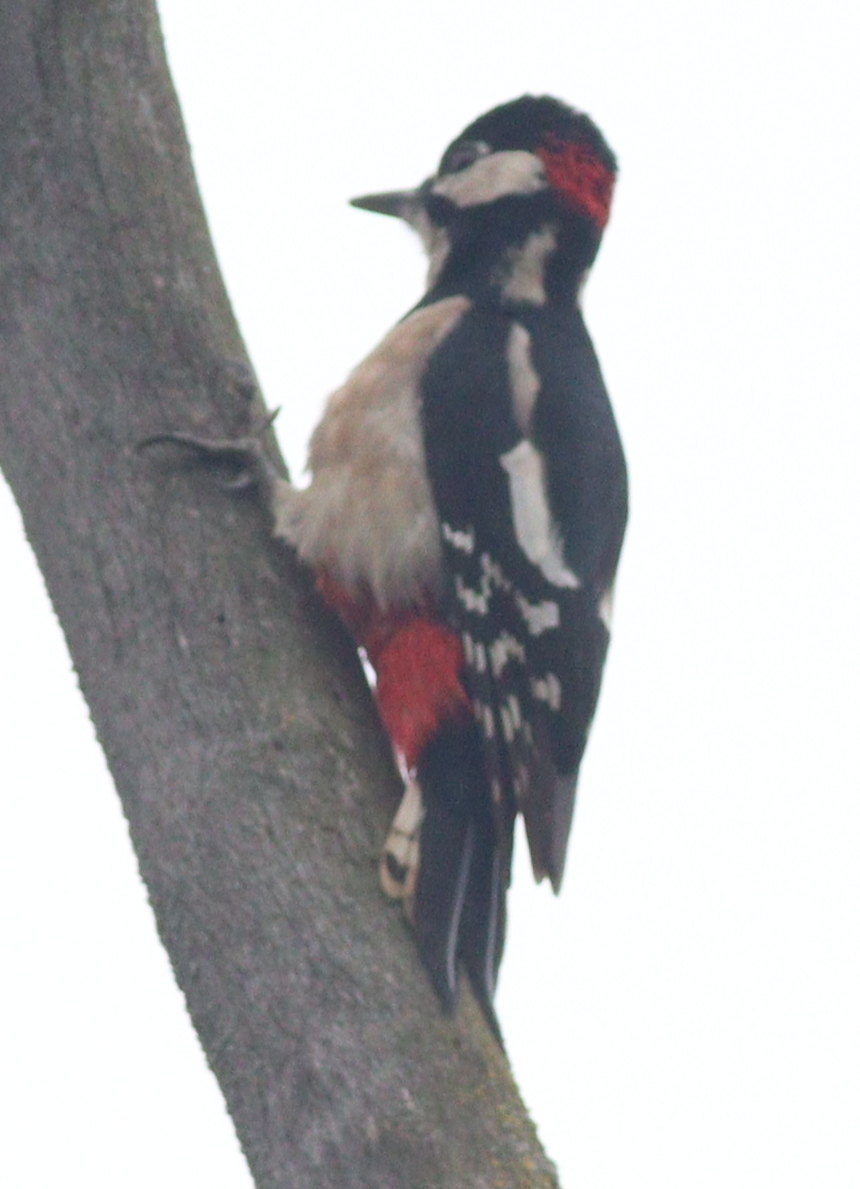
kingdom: Animalia
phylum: Chordata
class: Aves
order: Piciformes
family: Picidae
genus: Dendrocopos
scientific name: Dendrocopos major
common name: Great spotted woodpecker
